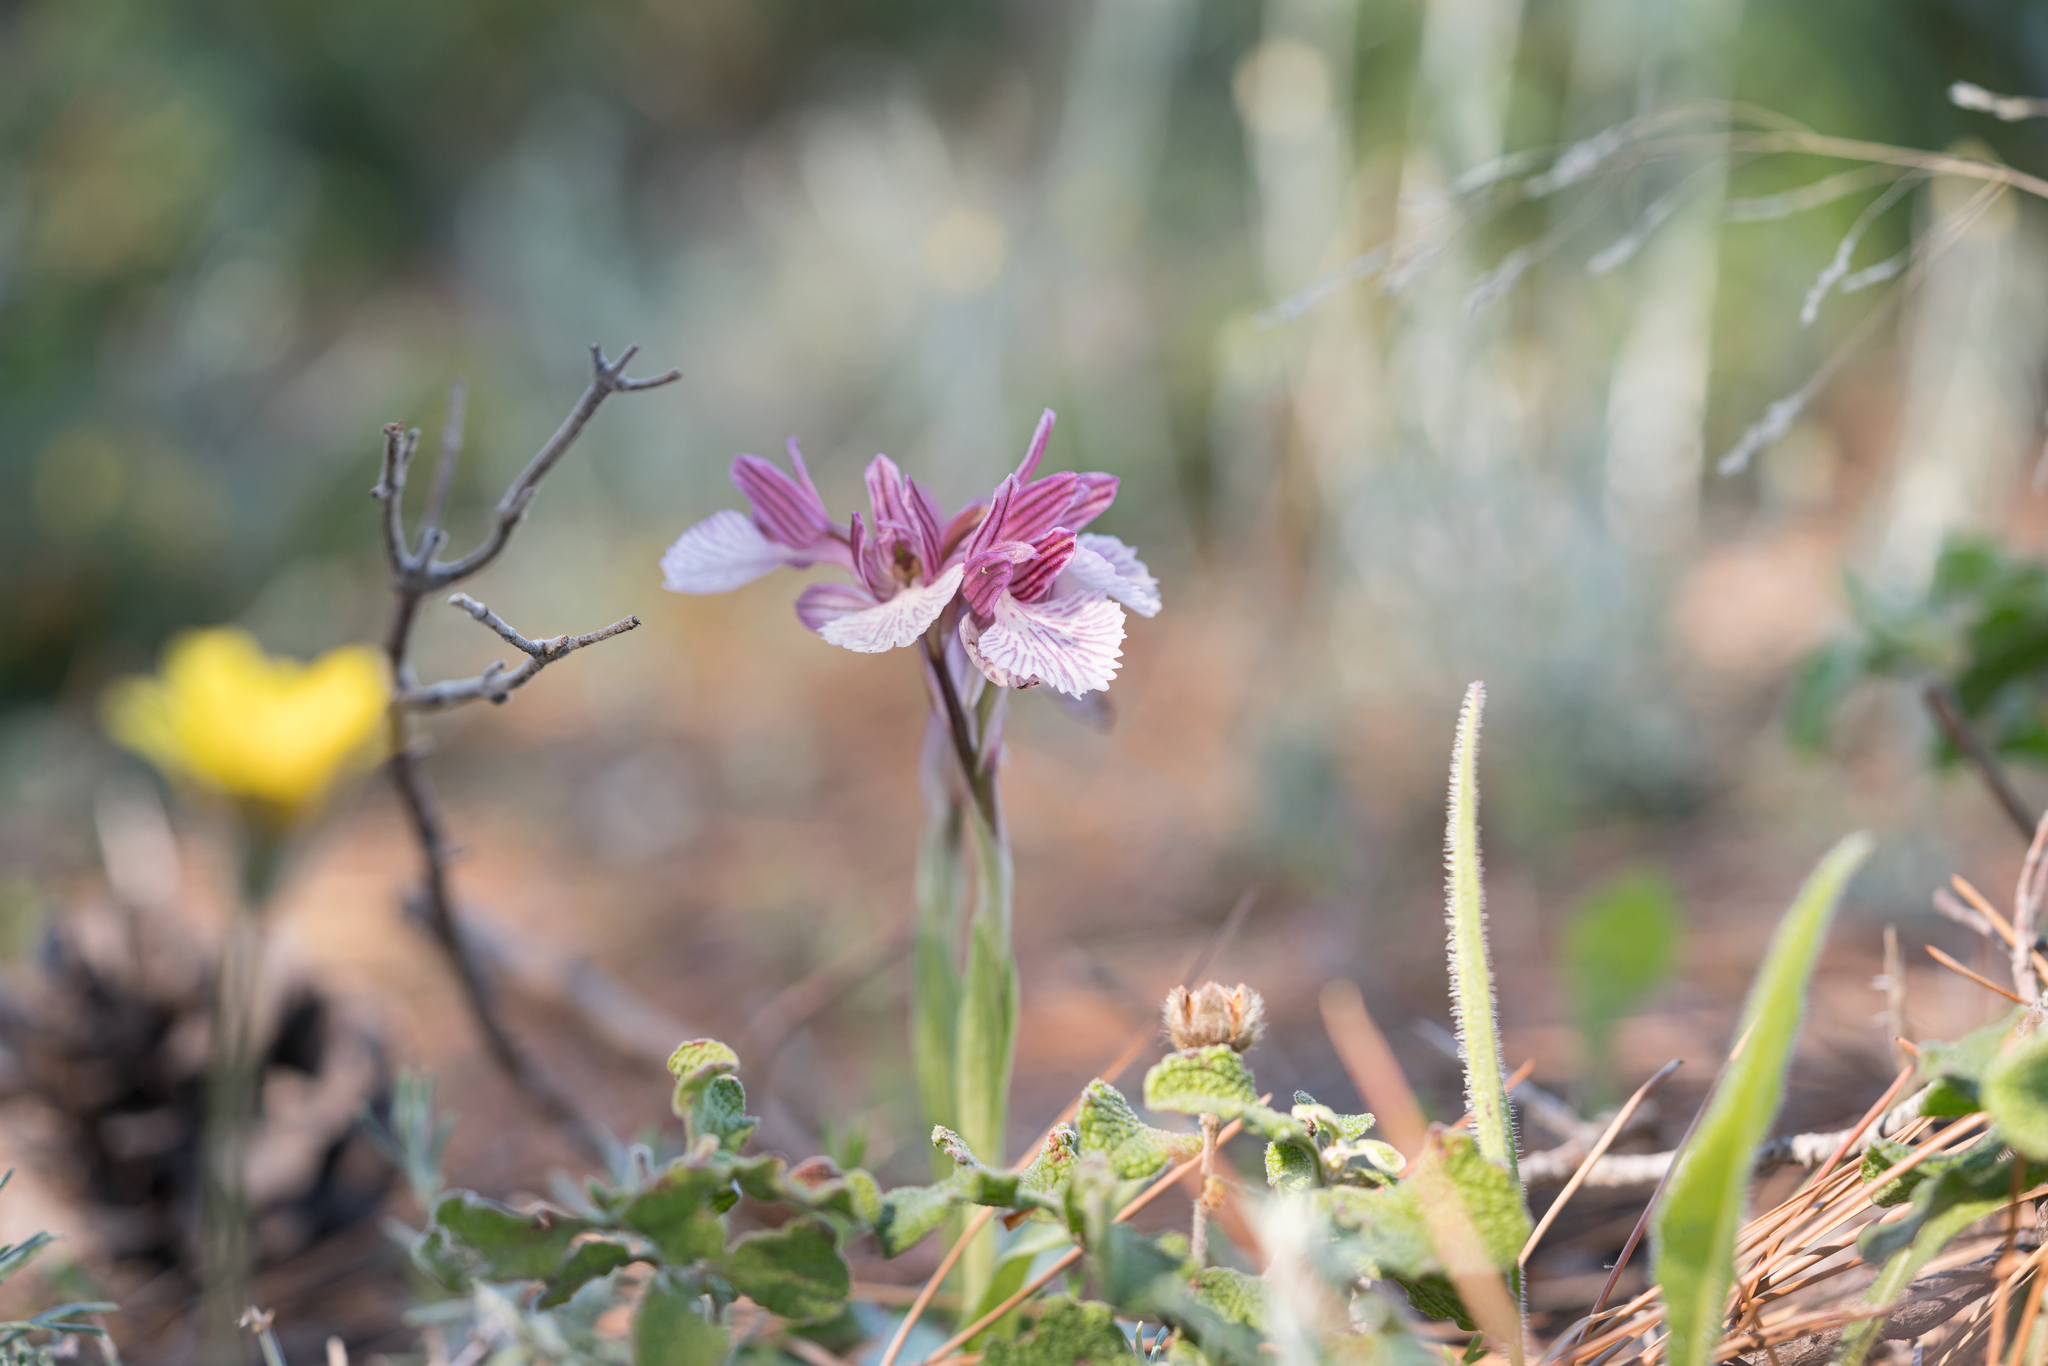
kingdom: Plantae
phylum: Tracheophyta
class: Liliopsida
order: Asparagales
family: Orchidaceae
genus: Anacamptis
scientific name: Anacamptis papilionacea
